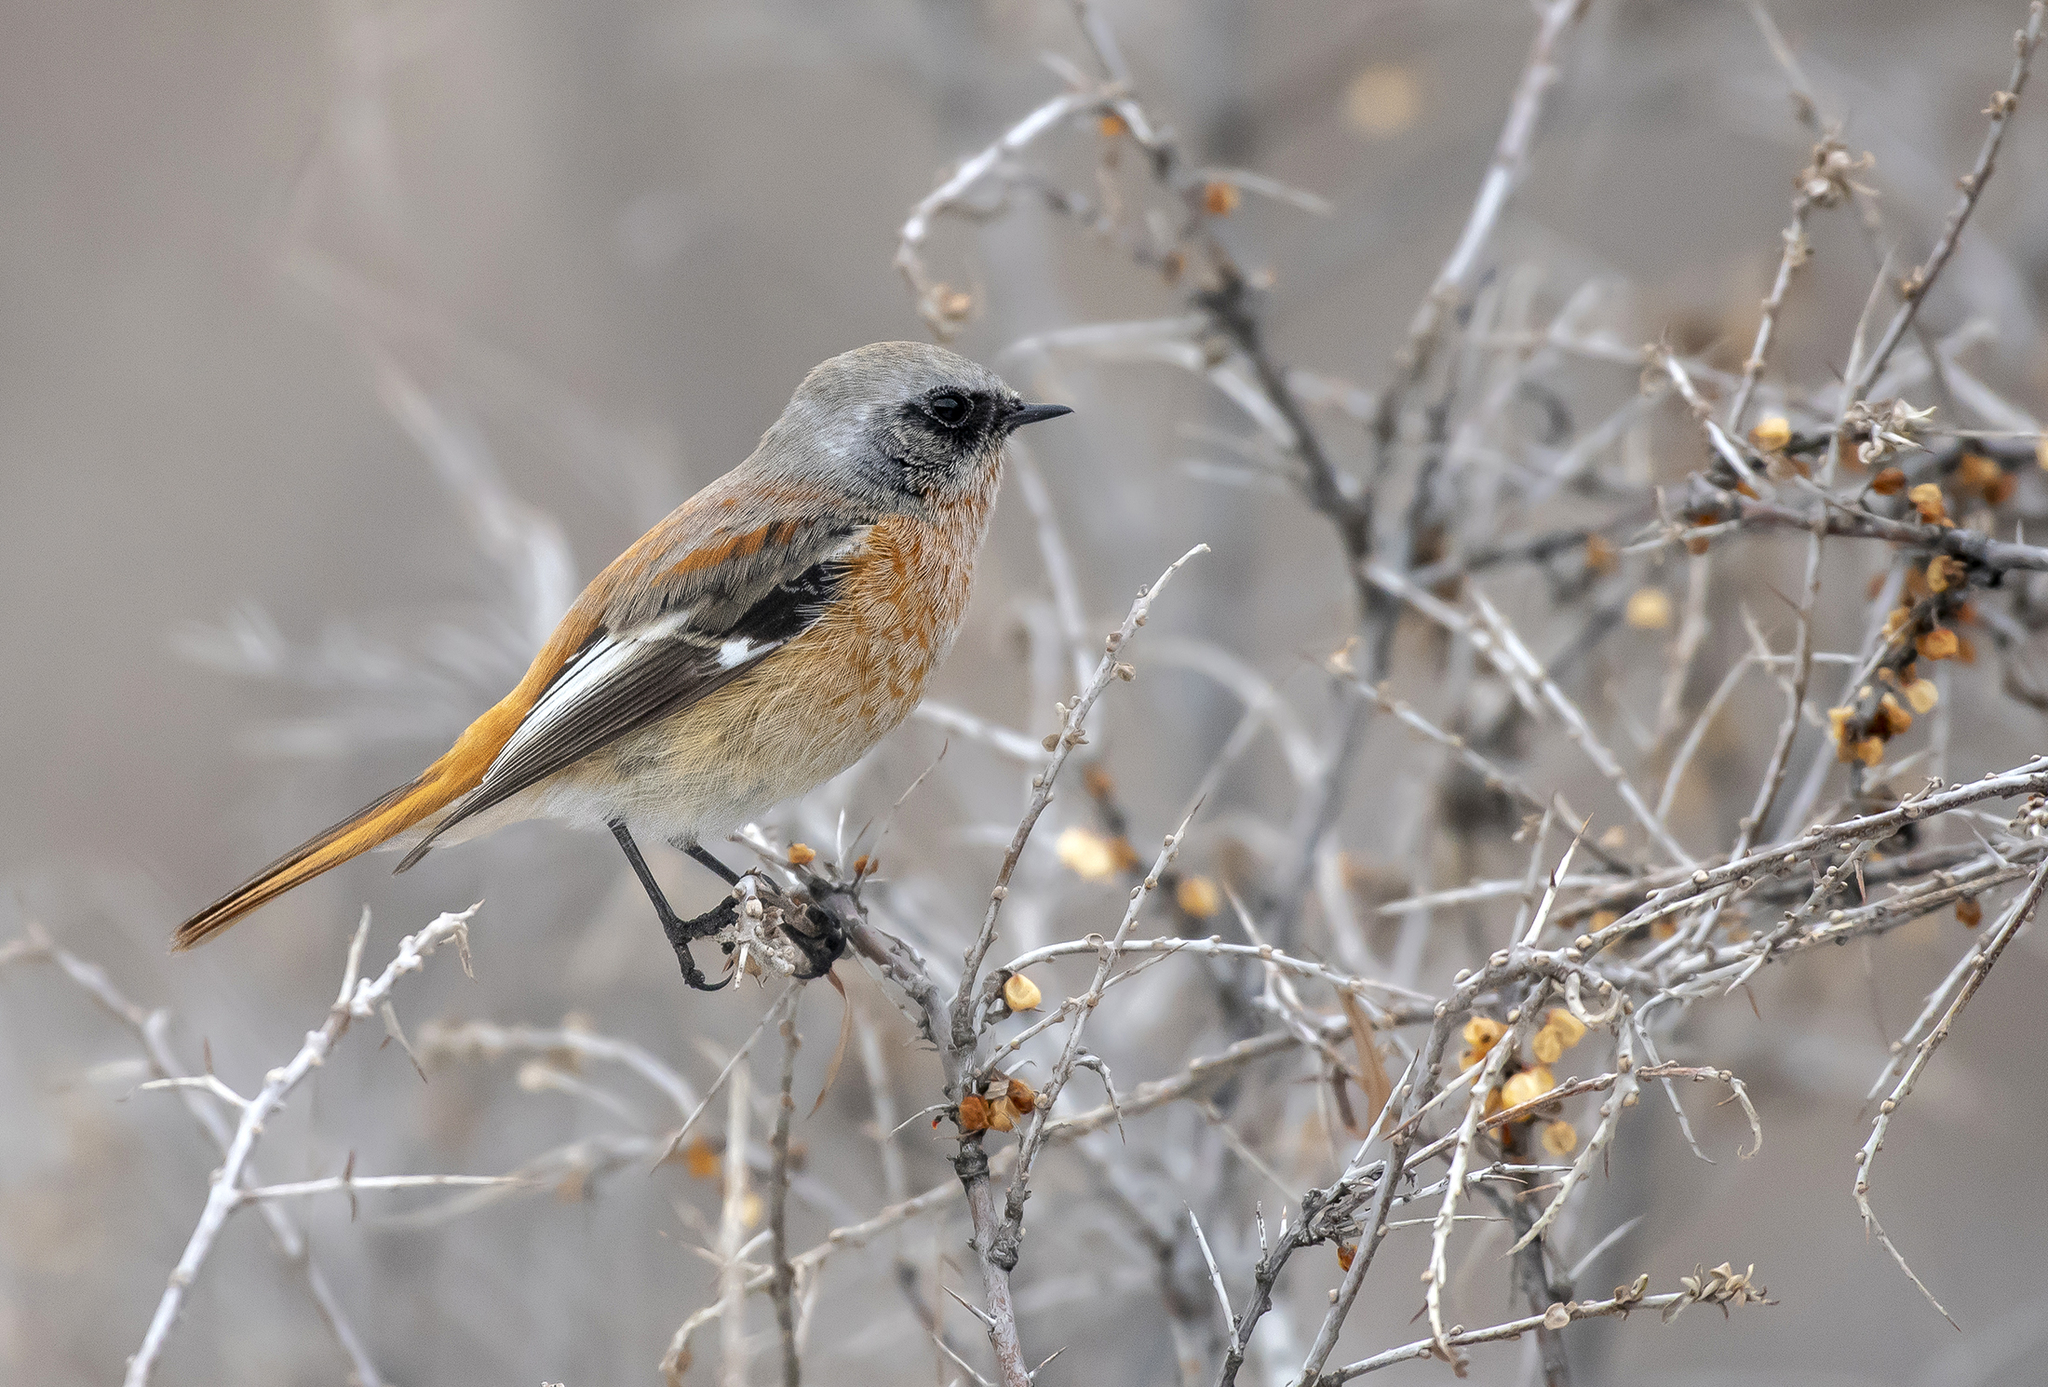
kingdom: Animalia
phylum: Chordata
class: Aves
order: Passeriformes
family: Muscicapidae
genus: Phoenicurus
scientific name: Phoenicurus erythronotus
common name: Eversmann's redstart
